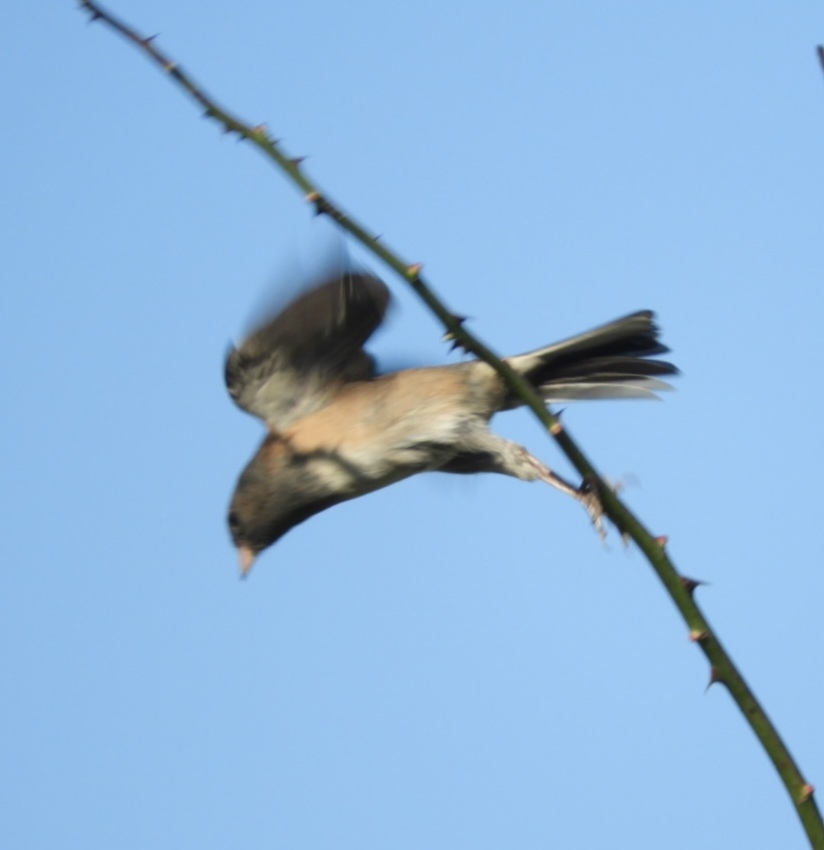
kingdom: Animalia
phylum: Chordata
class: Aves
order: Passeriformes
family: Passerellidae
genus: Junco
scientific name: Junco hyemalis
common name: Dark-eyed junco
